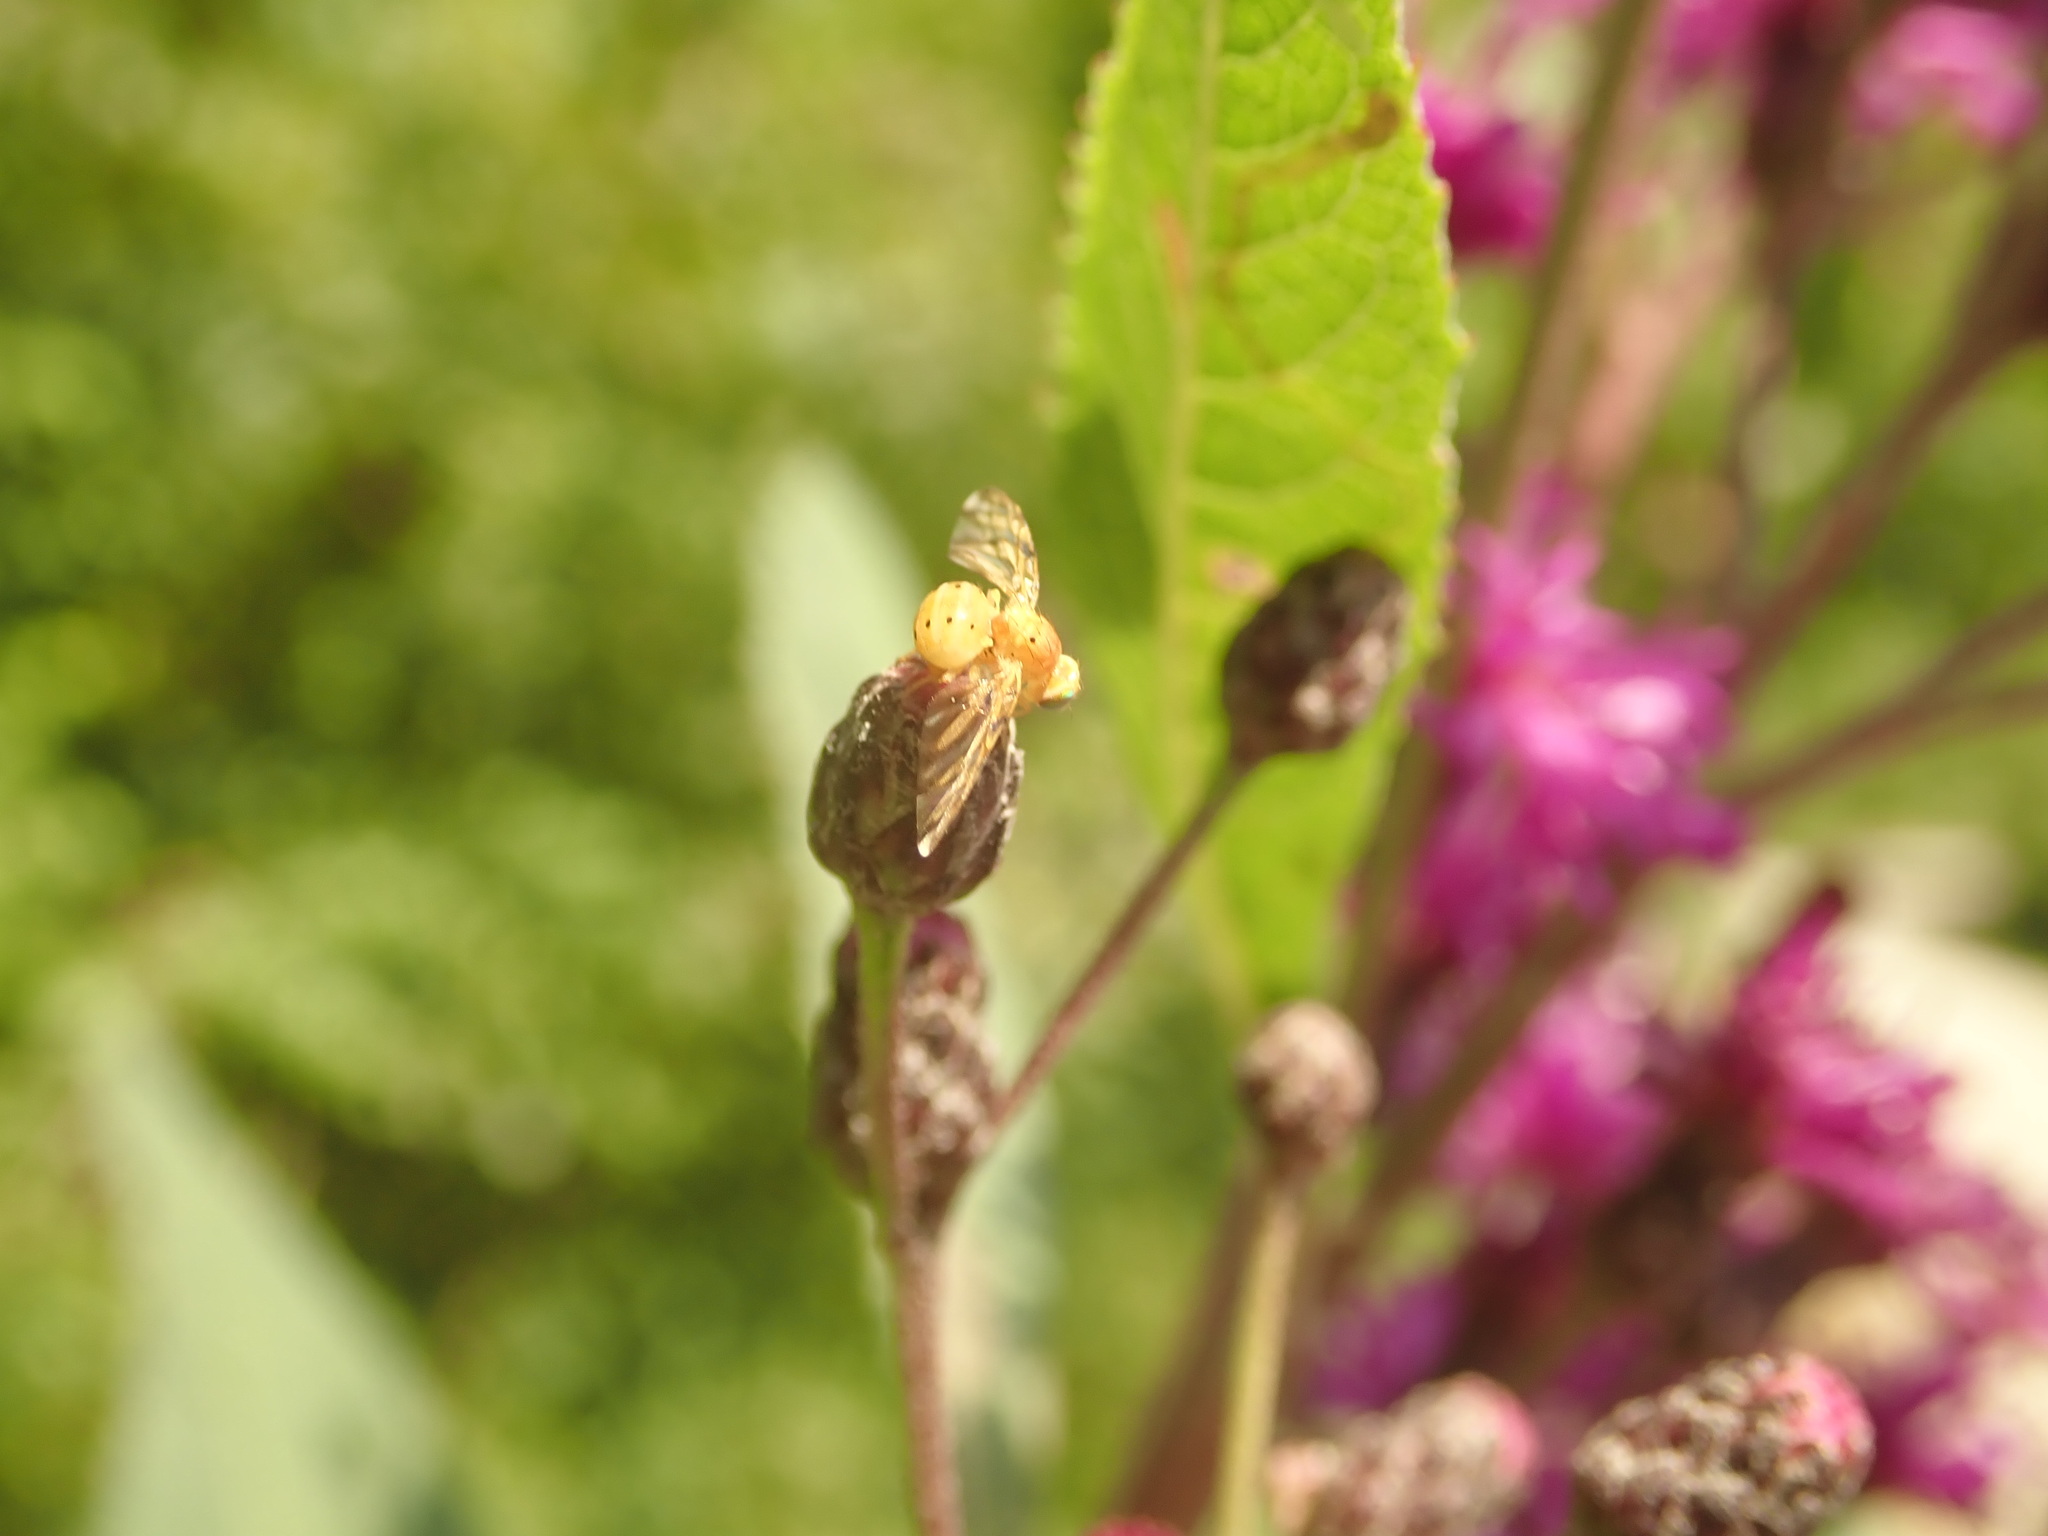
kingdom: Animalia
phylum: Arthropoda
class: Insecta
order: Diptera
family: Tephritidae
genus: Tomoplagia
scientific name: Tomoplagia obliqua
